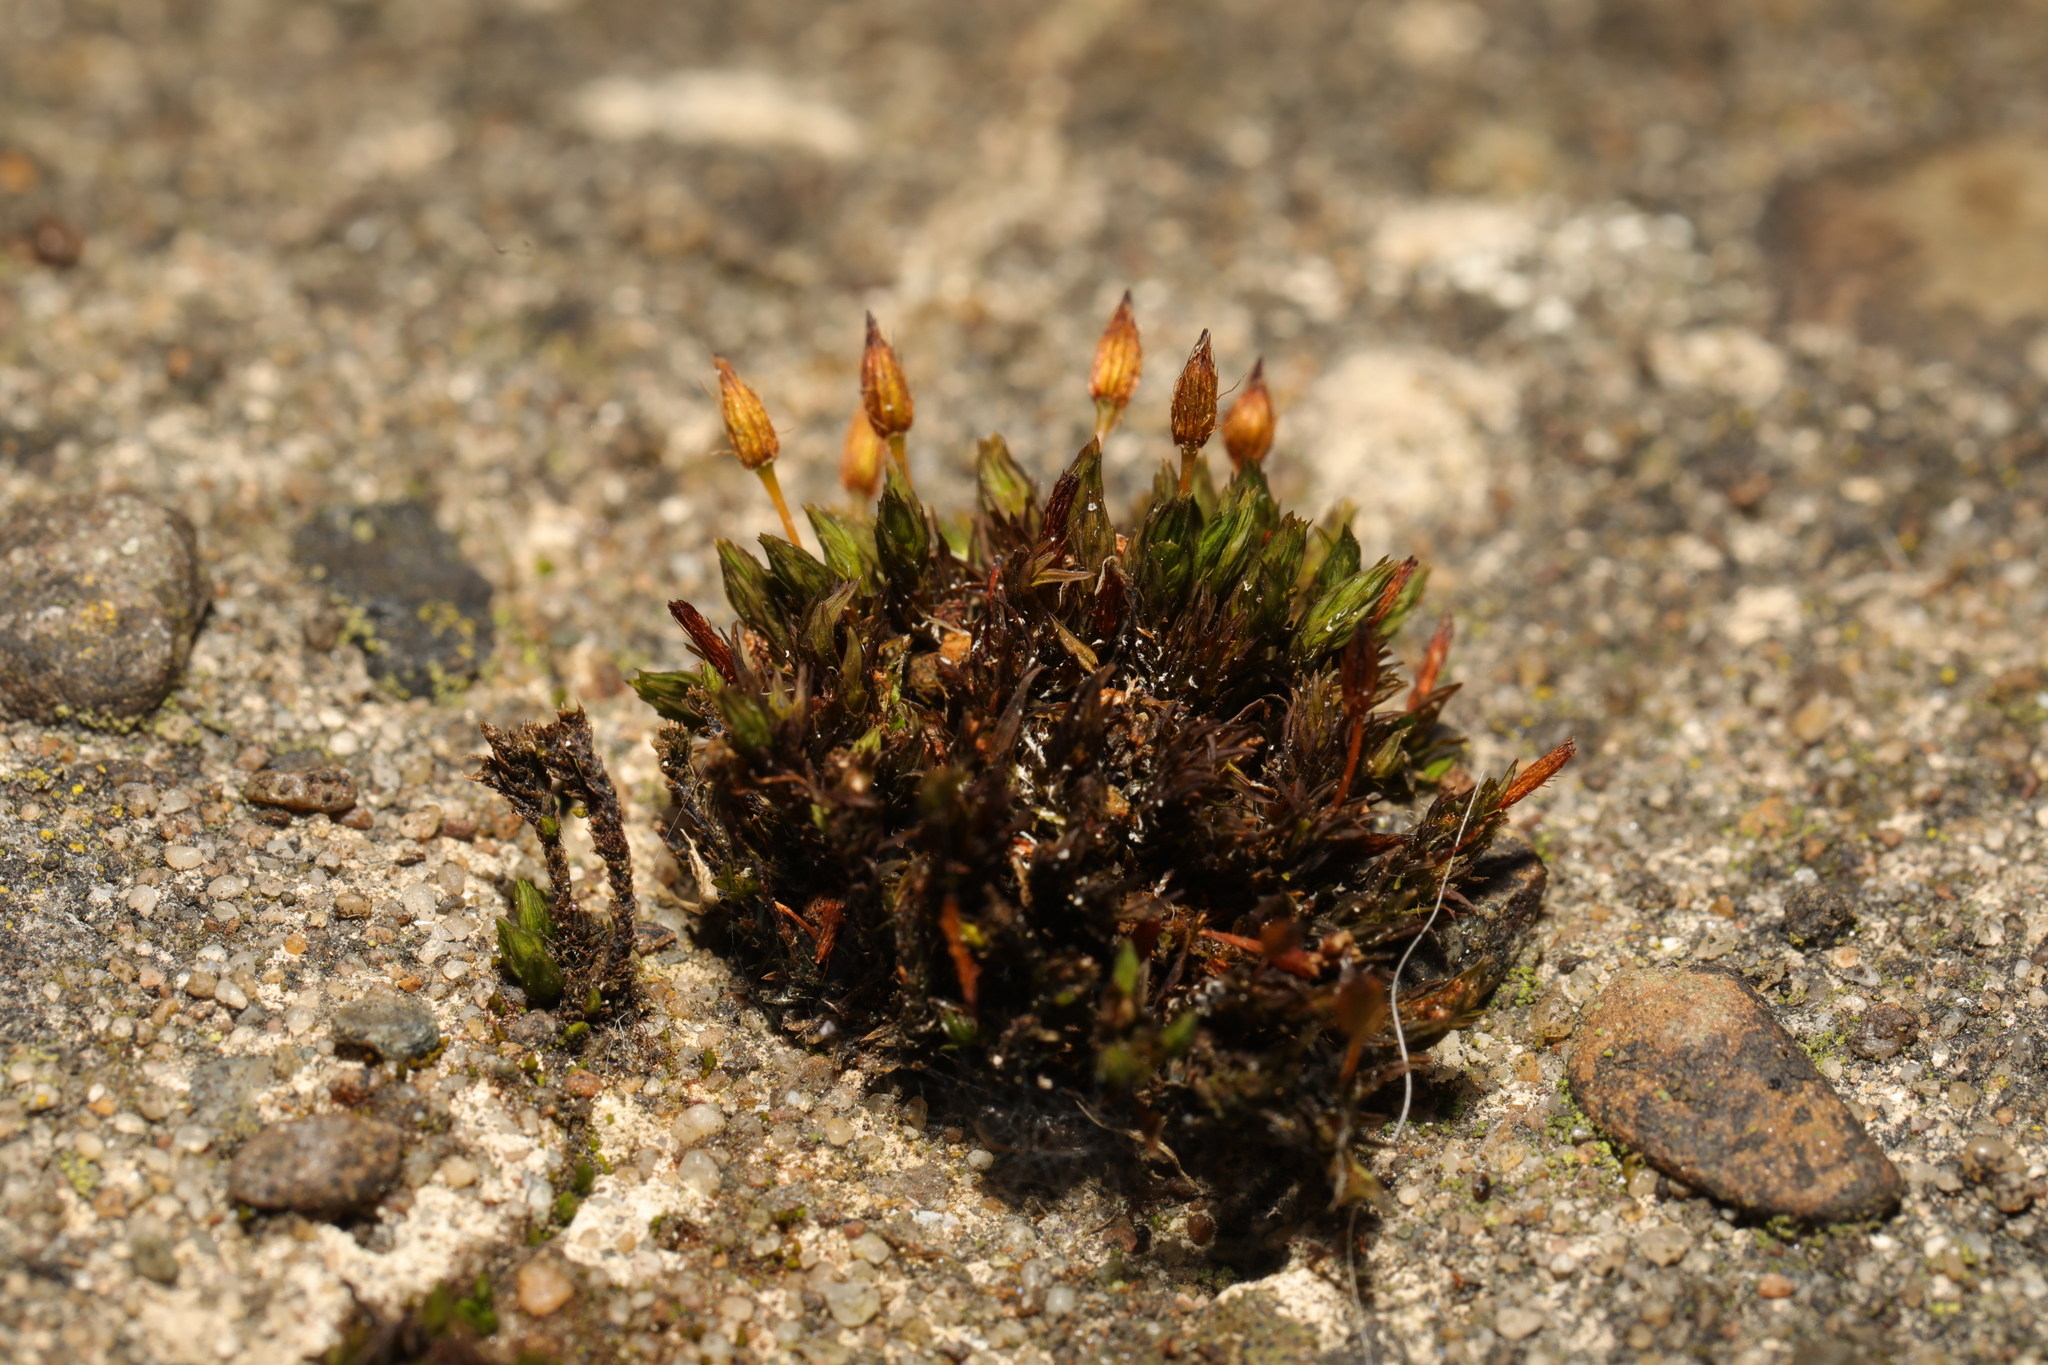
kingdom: Plantae
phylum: Bryophyta
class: Bryopsida
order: Orthotrichales
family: Orthotrichaceae
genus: Orthotrichum
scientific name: Orthotrichum anomalum
